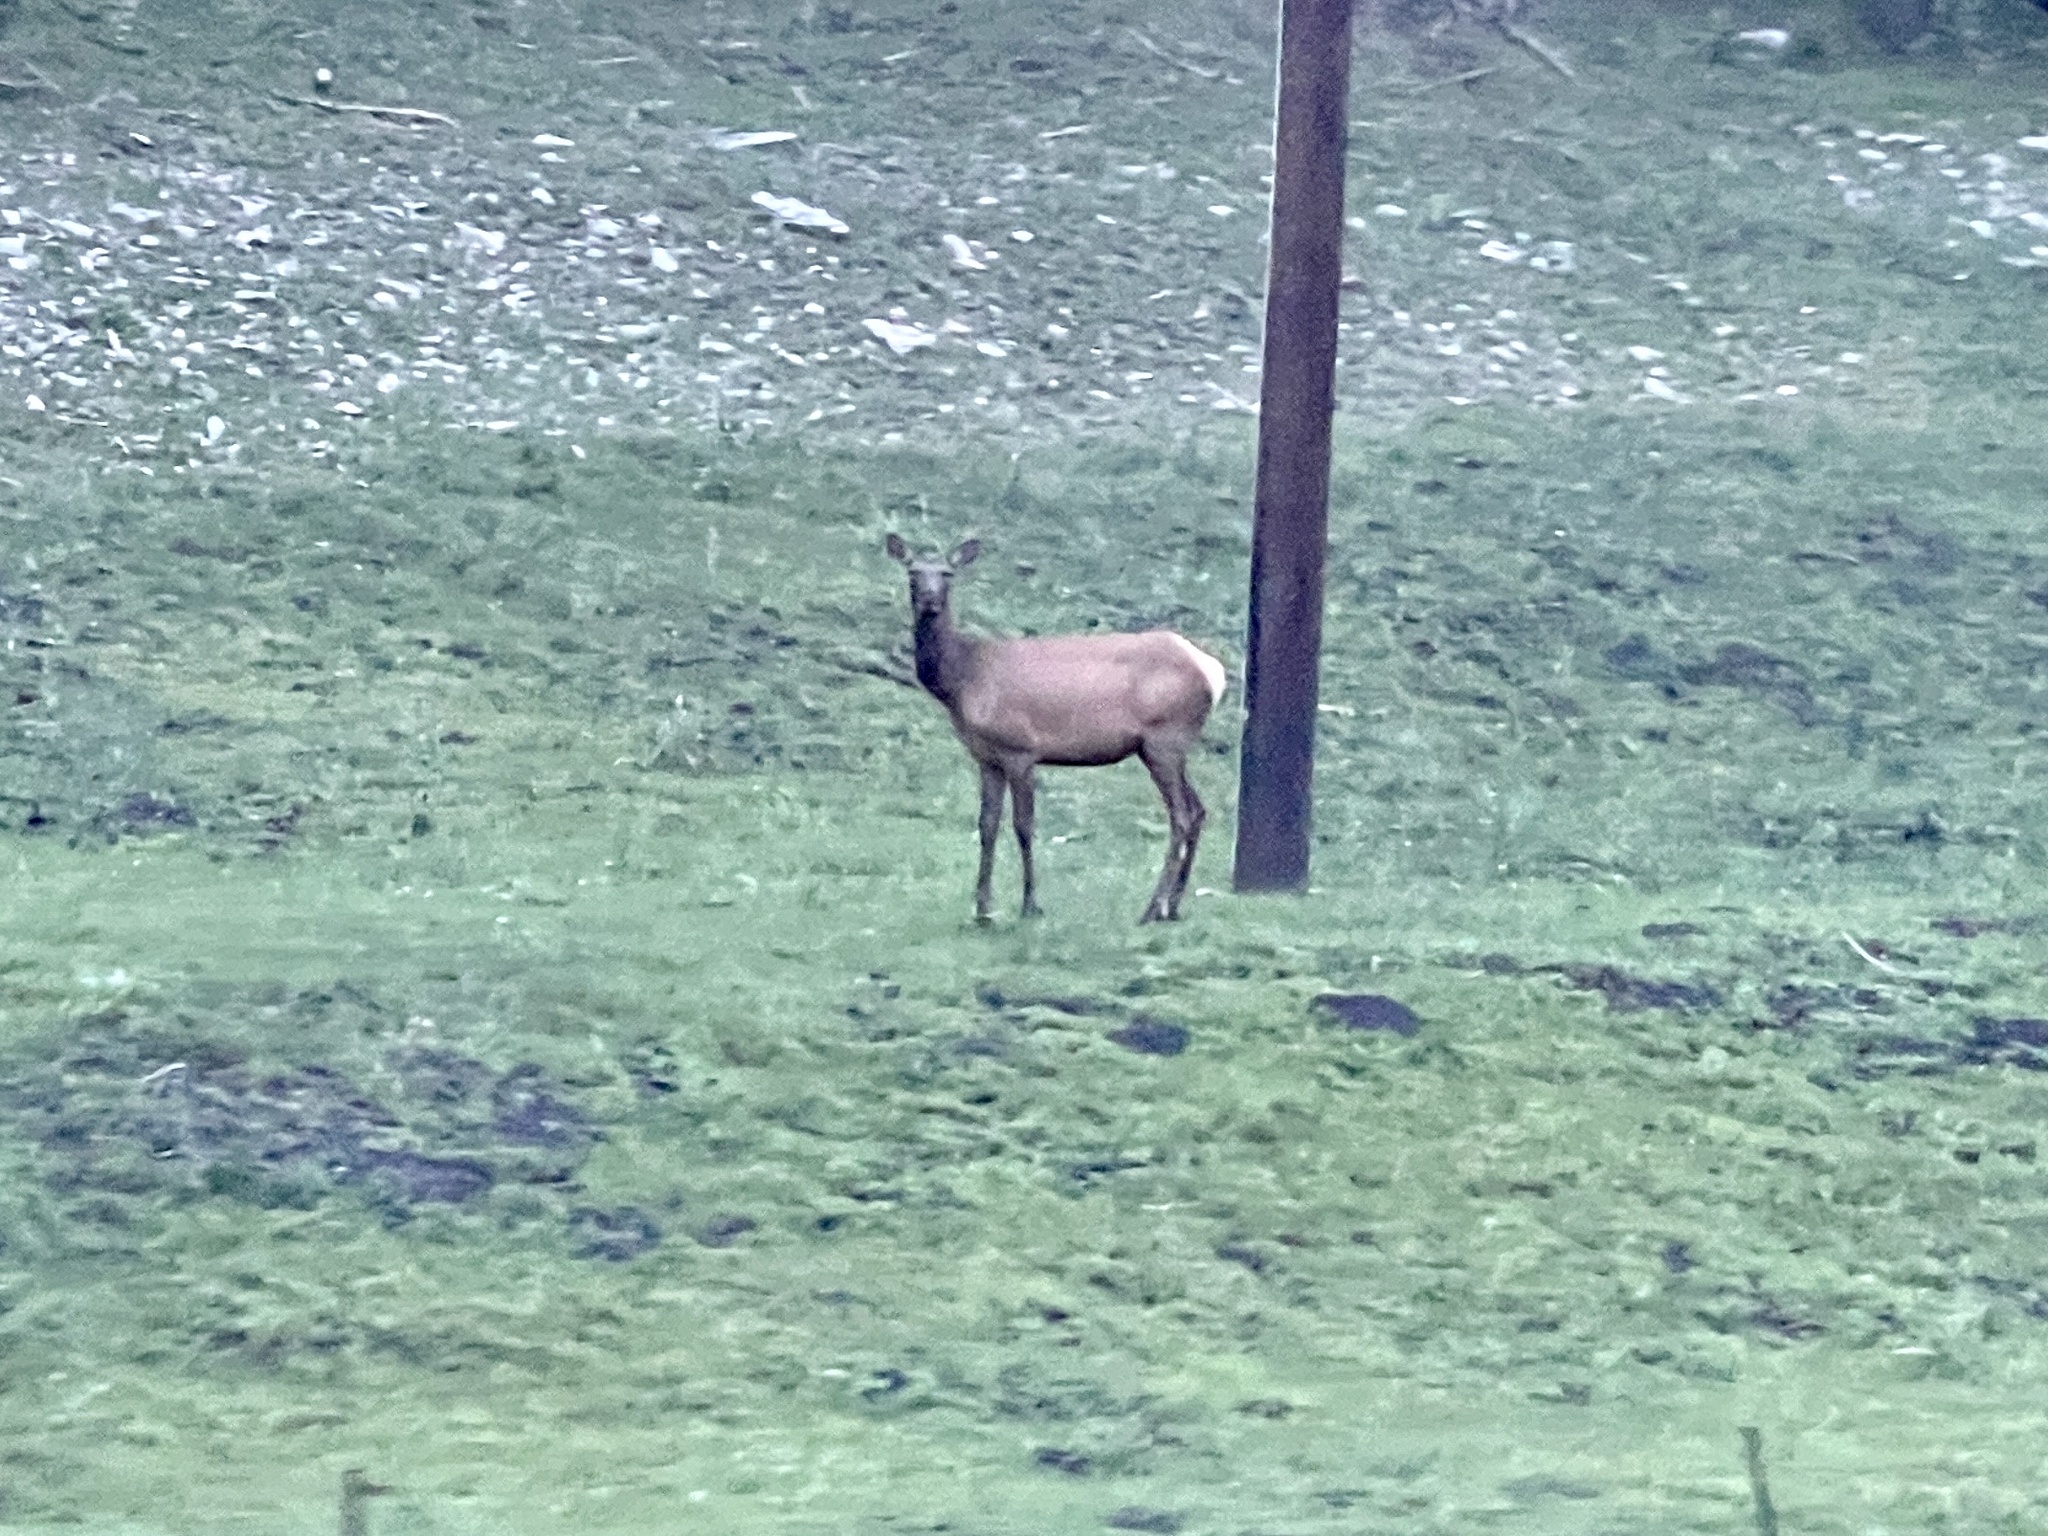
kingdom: Animalia
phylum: Chordata
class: Mammalia
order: Artiodactyla
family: Cervidae
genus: Cervus
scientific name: Cervus elaphus
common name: Red deer
